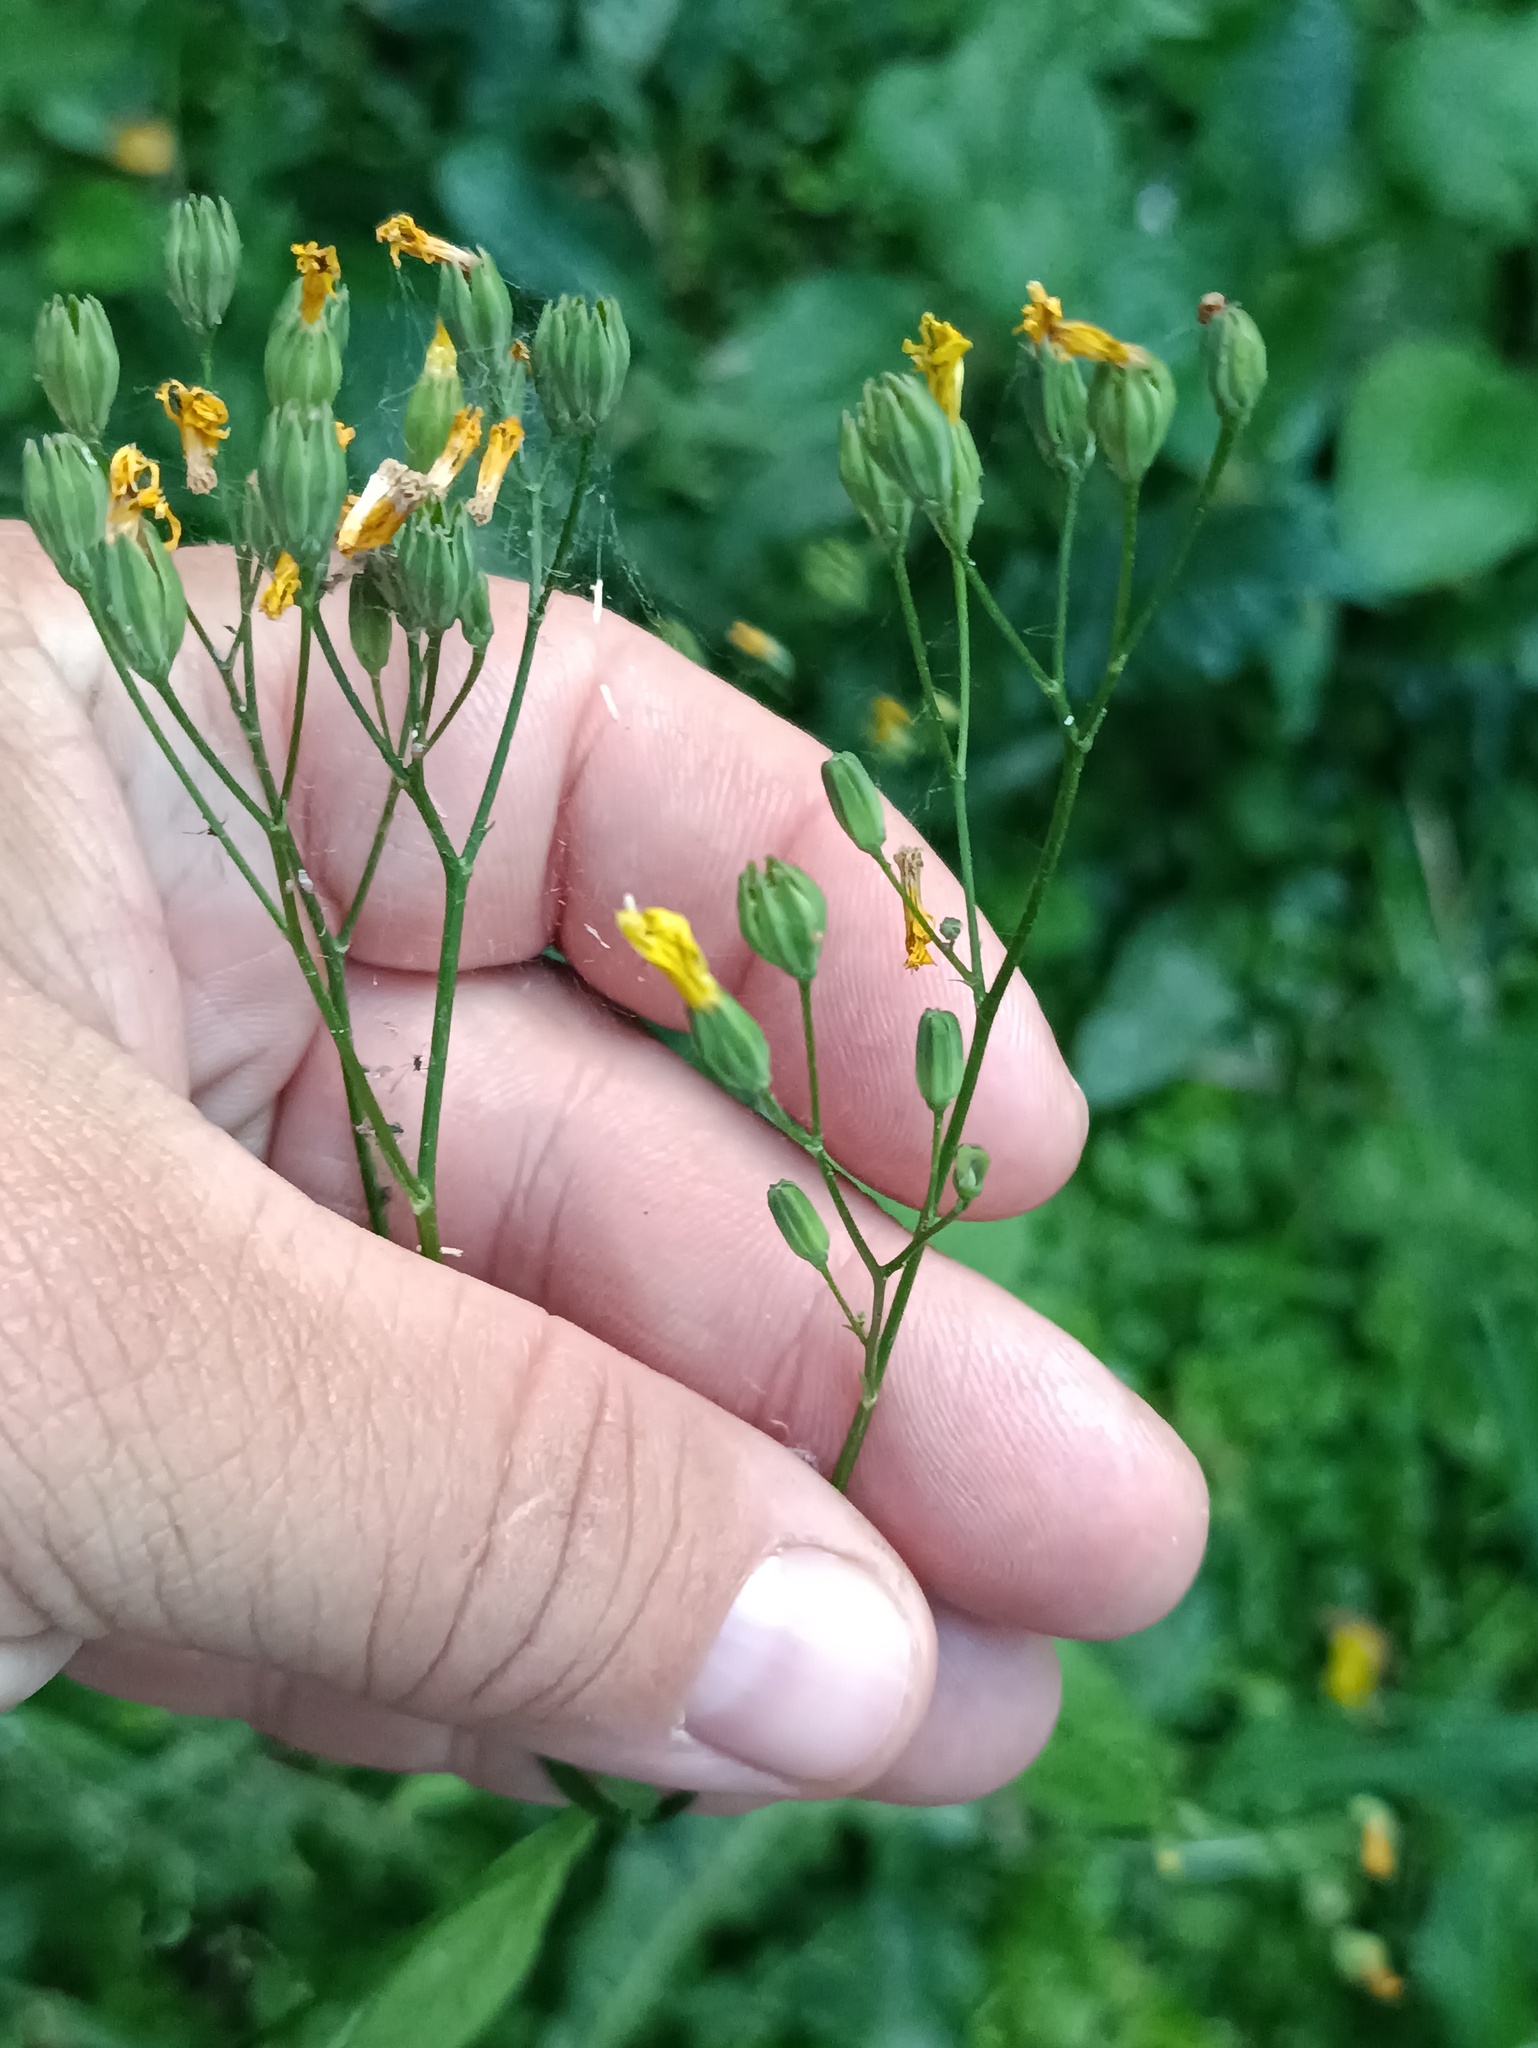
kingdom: Plantae
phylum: Tracheophyta
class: Magnoliopsida
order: Asterales
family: Asteraceae
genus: Lapsana
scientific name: Lapsana communis
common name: Nipplewort
